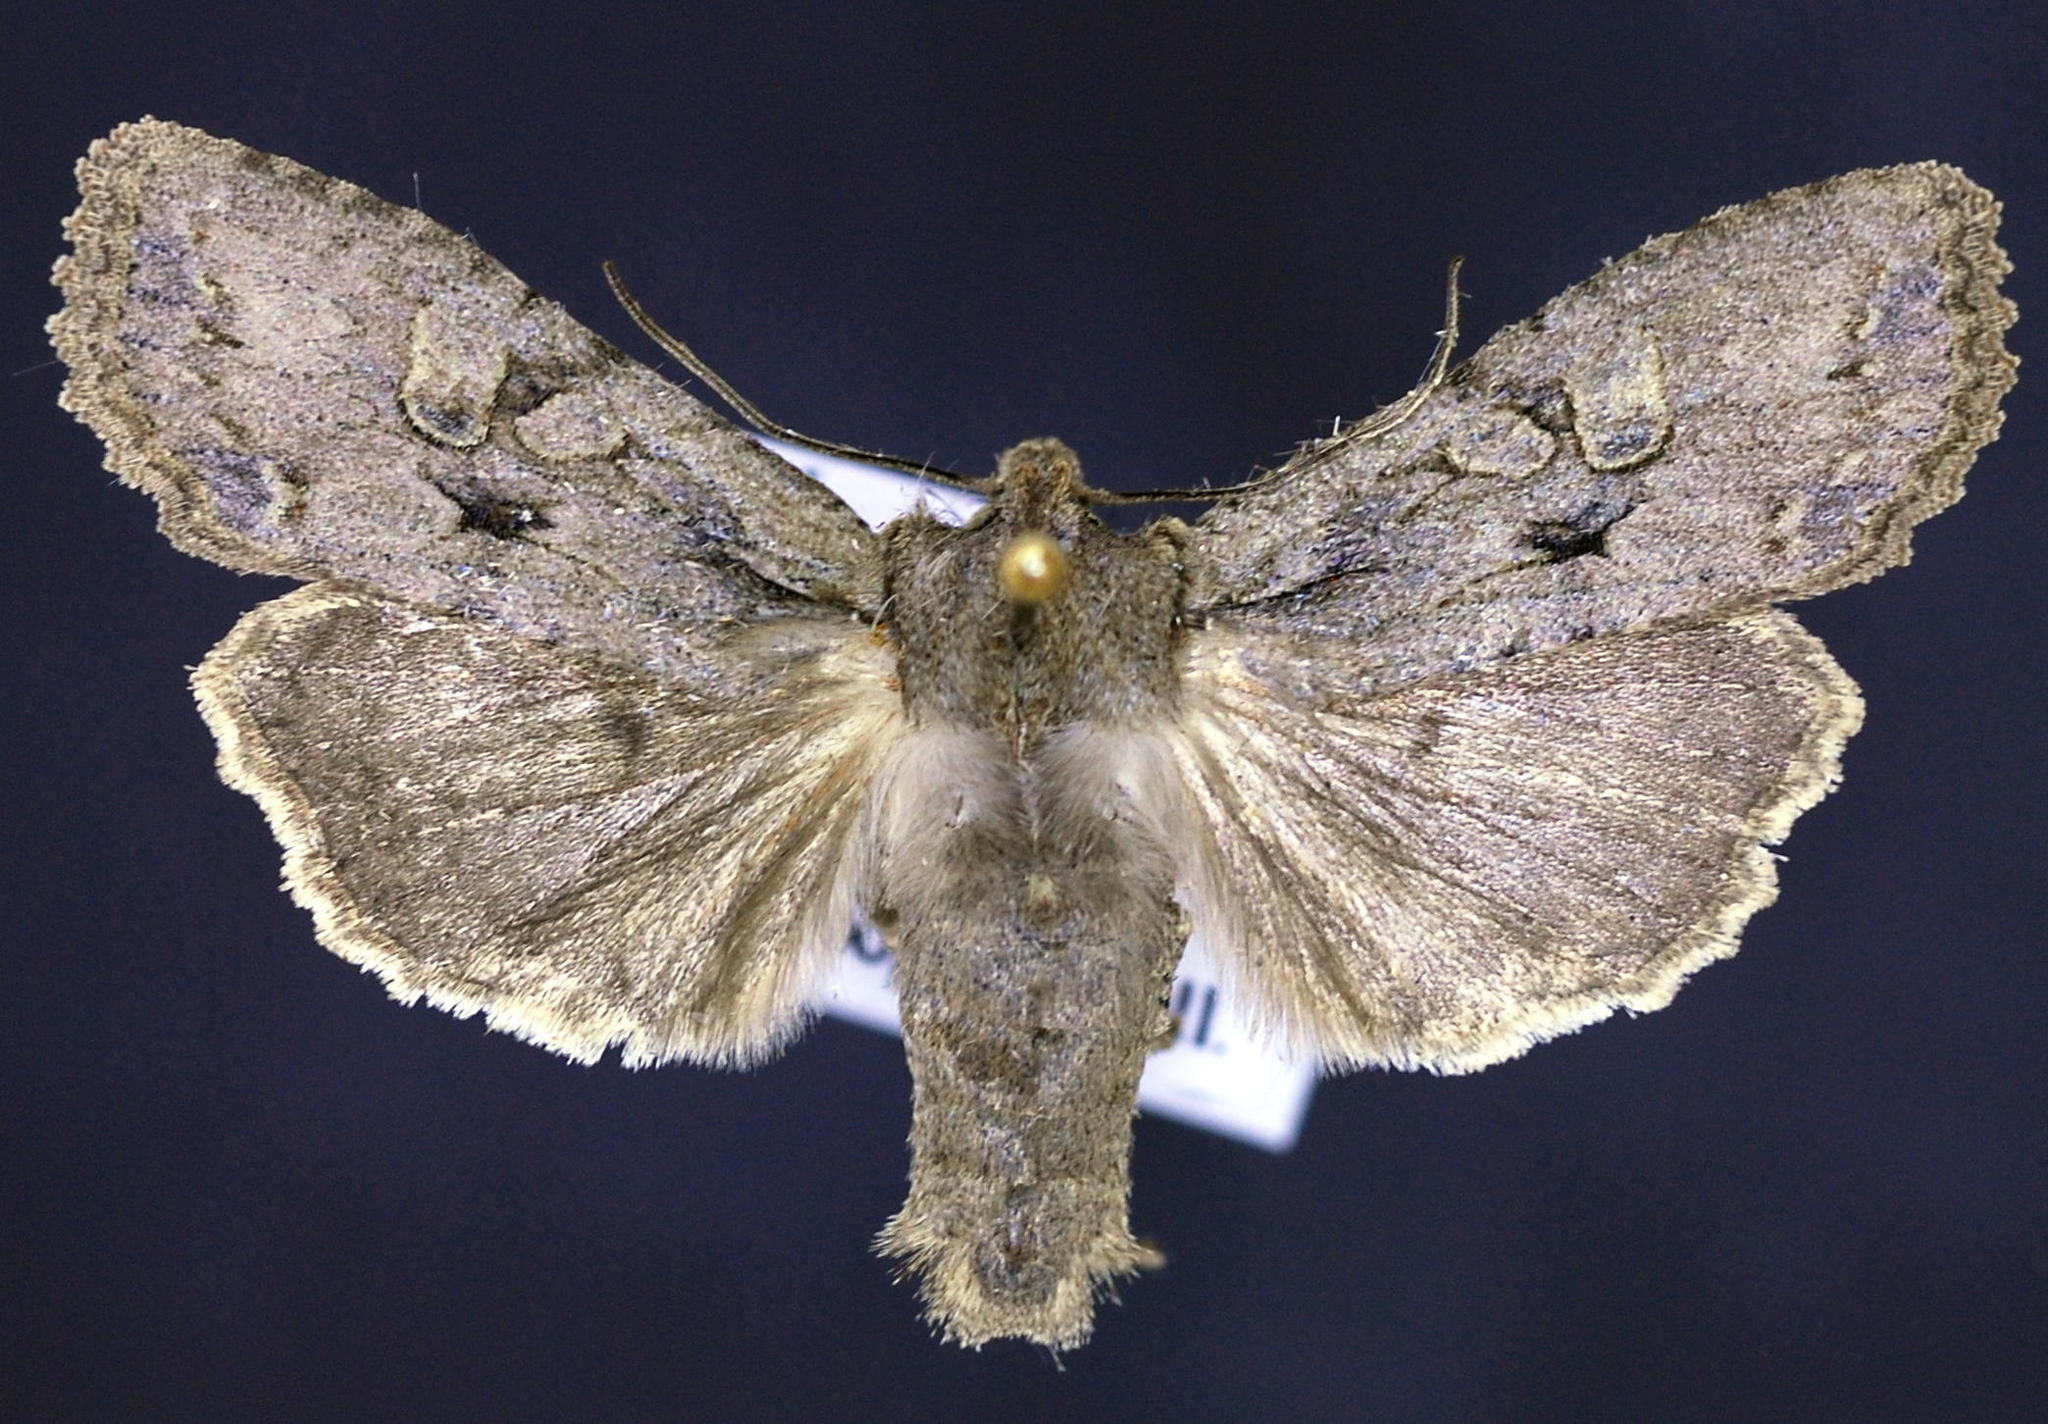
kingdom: Animalia
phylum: Arthropoda
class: Insecta
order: Lepidoptera
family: Noctuidae
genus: Lithophane
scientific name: Lithophane disposita
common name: Dashed gray pinion moth
